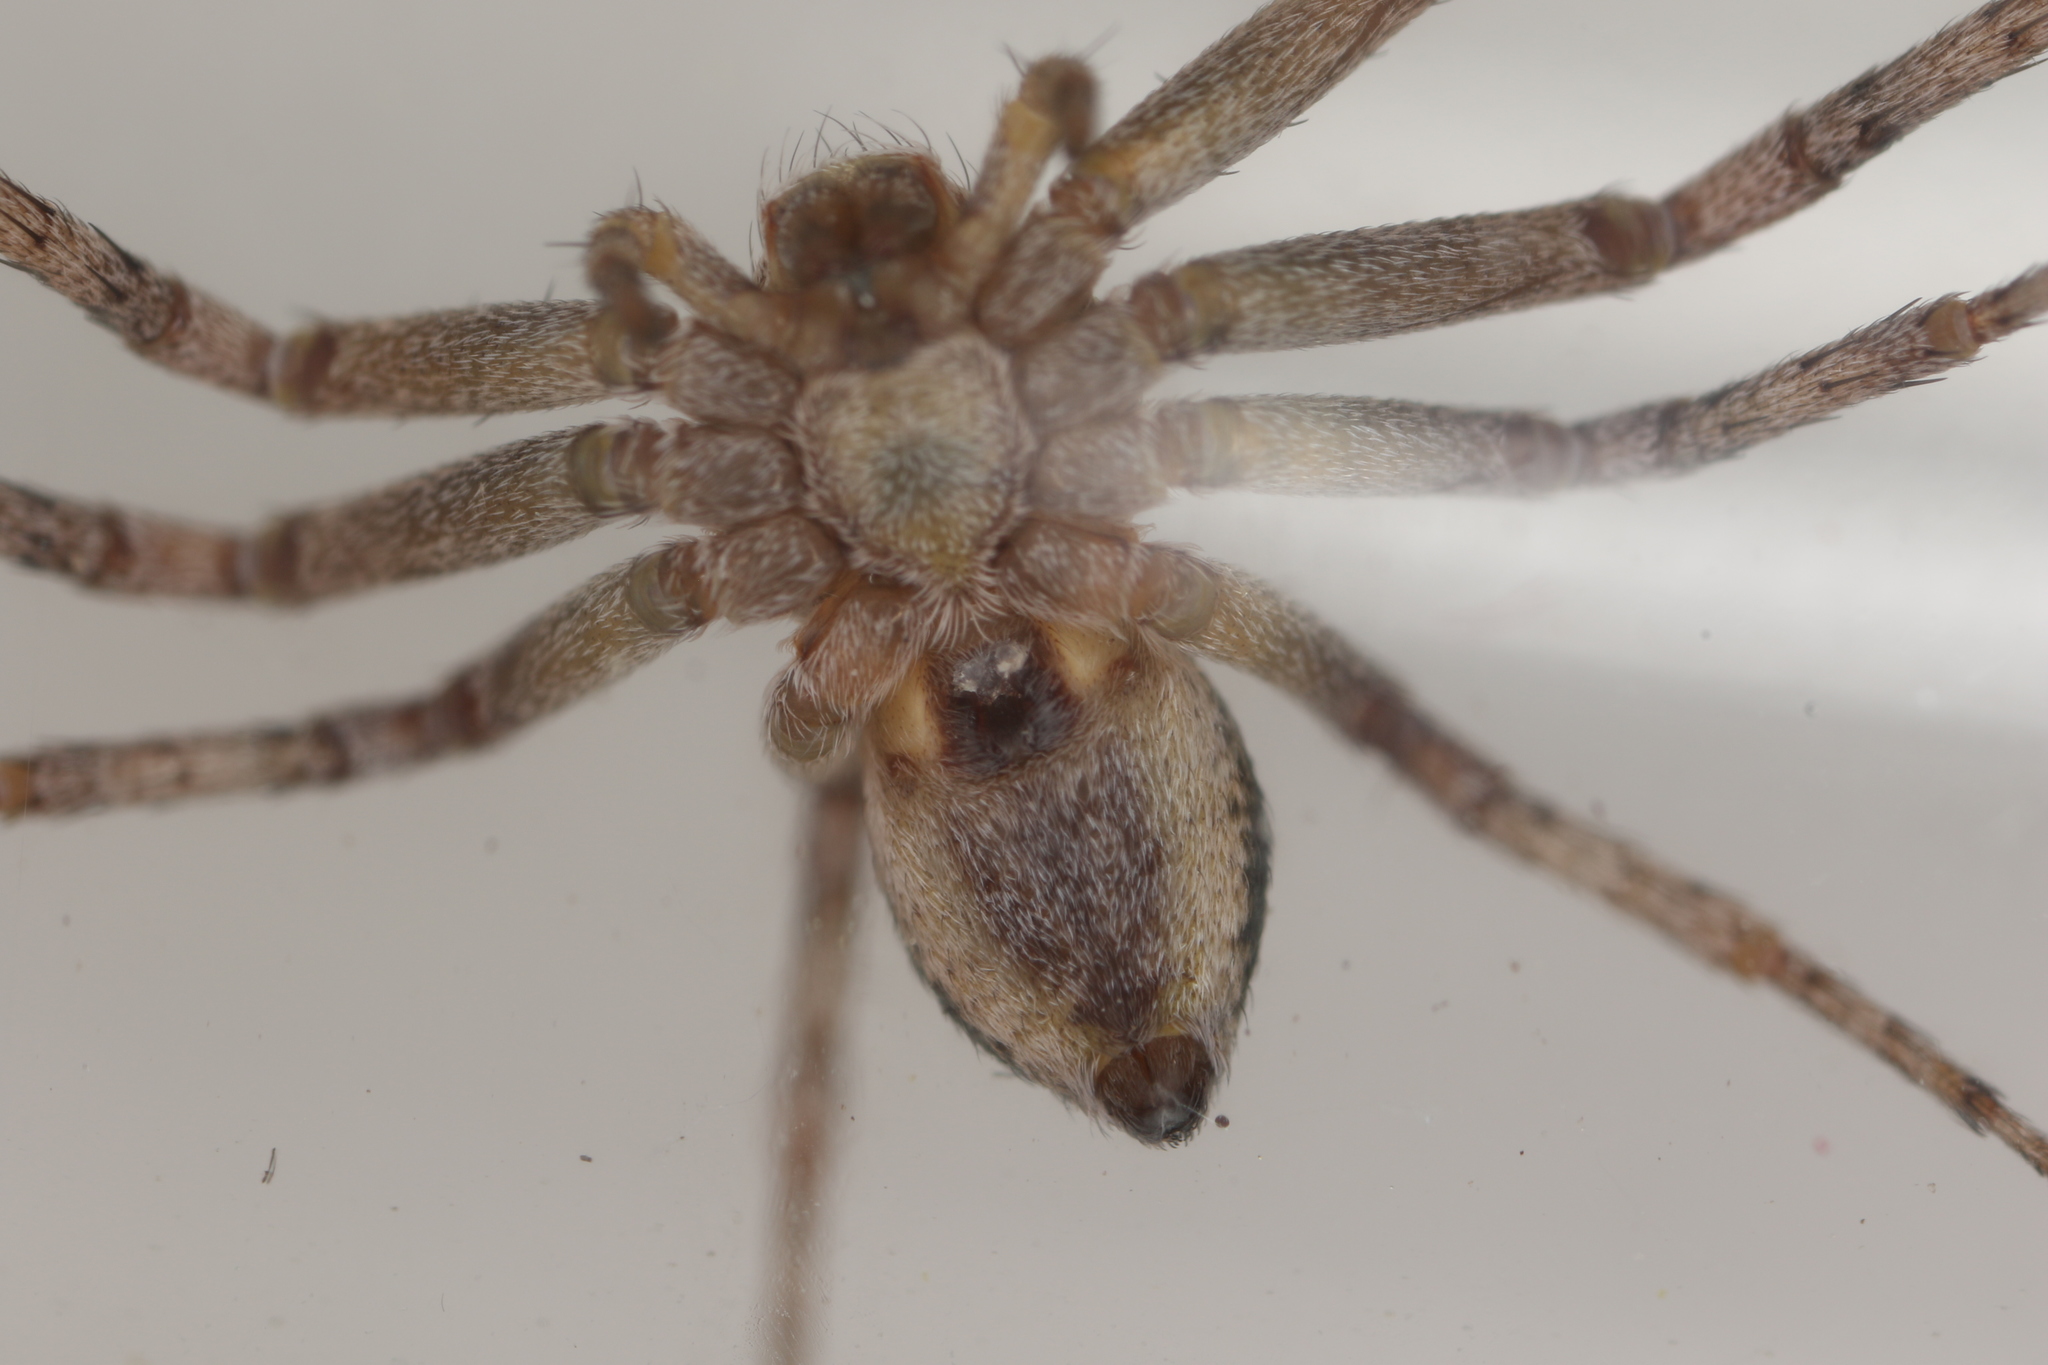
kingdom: Animalia
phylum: Arthropoda
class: Arachnida
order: Araneae
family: Philodromidae
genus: Philodromus
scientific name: Philodromus aureolus
